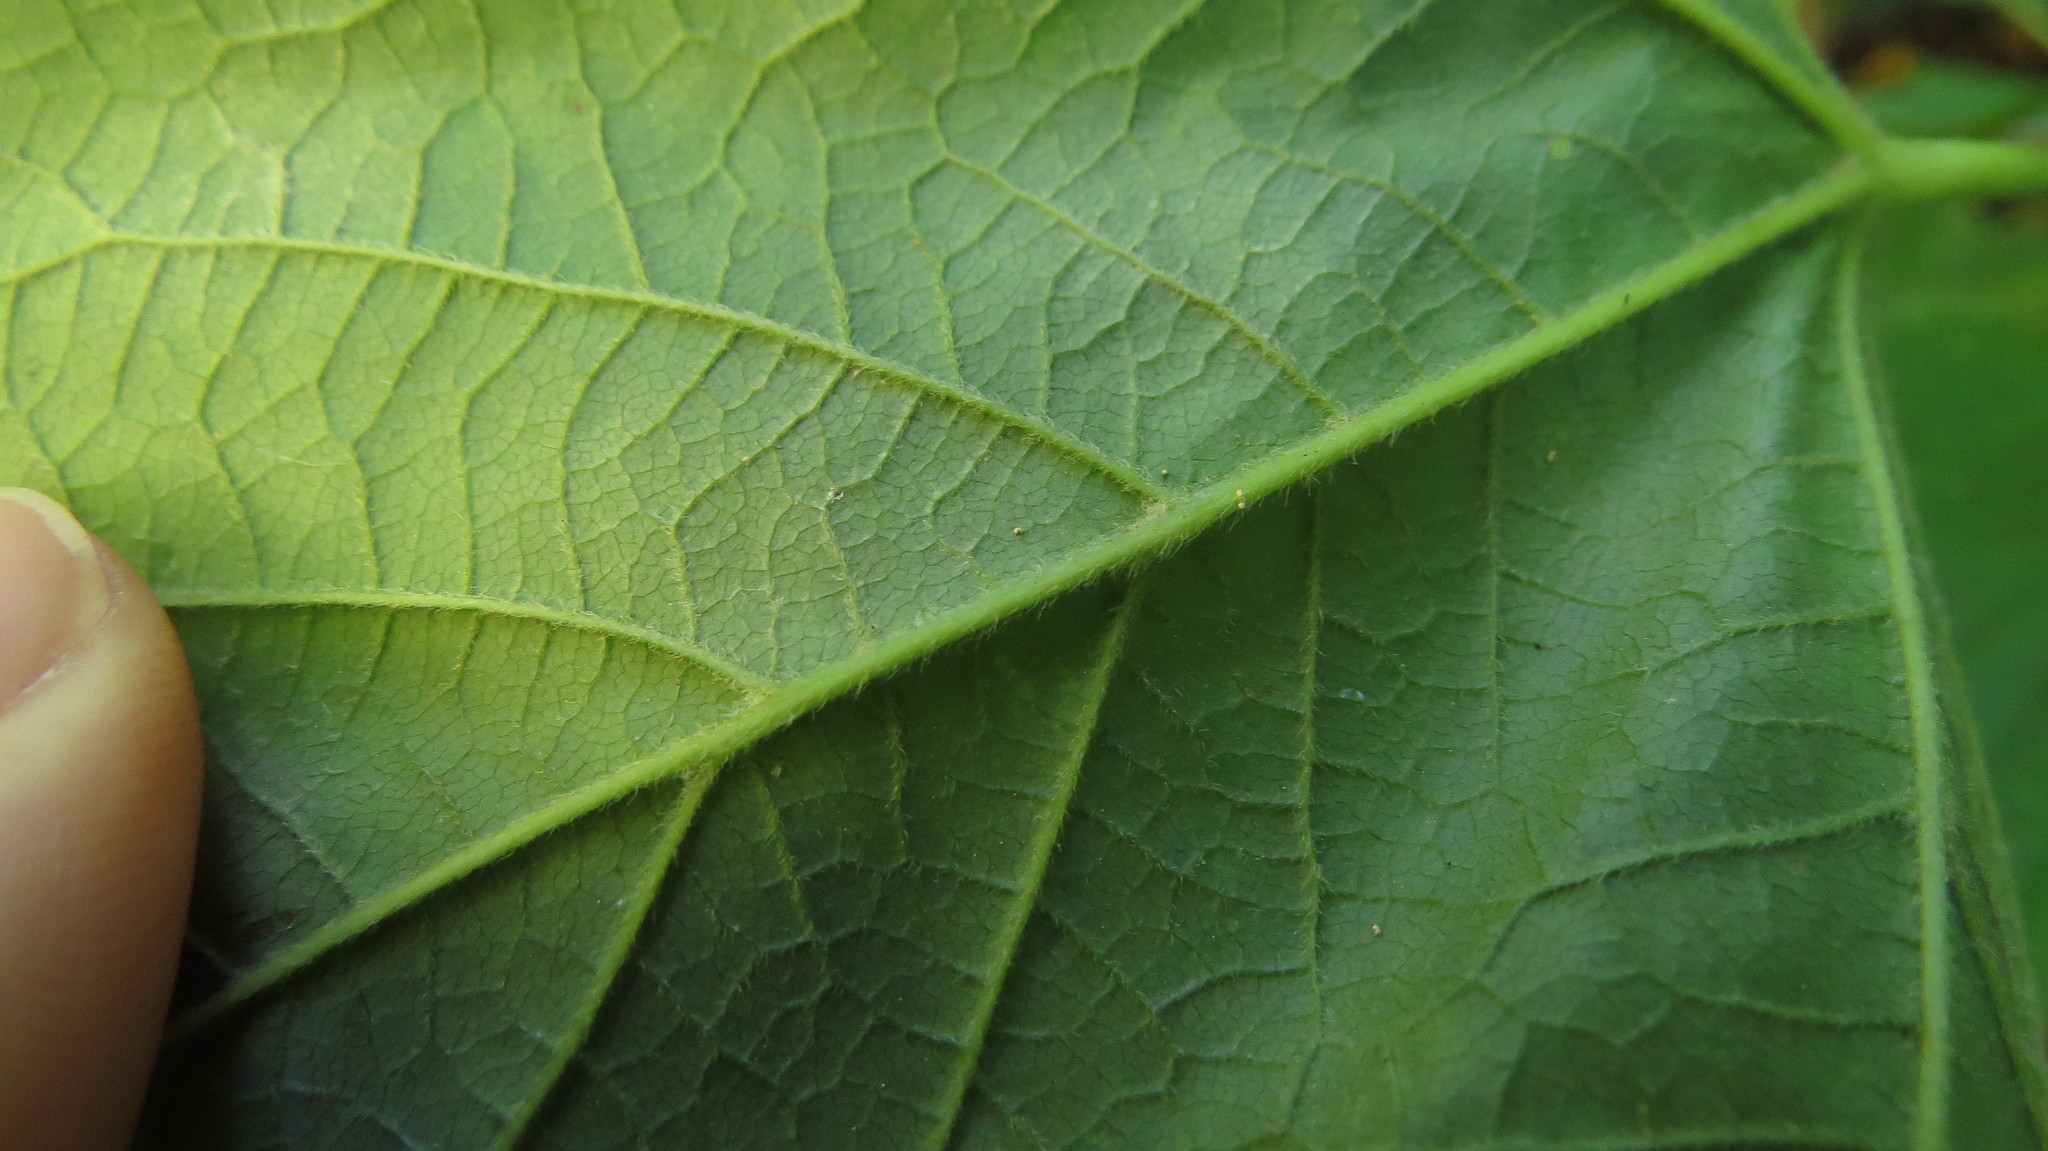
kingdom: Plantae
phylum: Tracheophyta
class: Magnoliopsida
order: Sapindales
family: Sapindaceae
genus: Acer
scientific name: Acer spicatum
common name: Mountain maple
